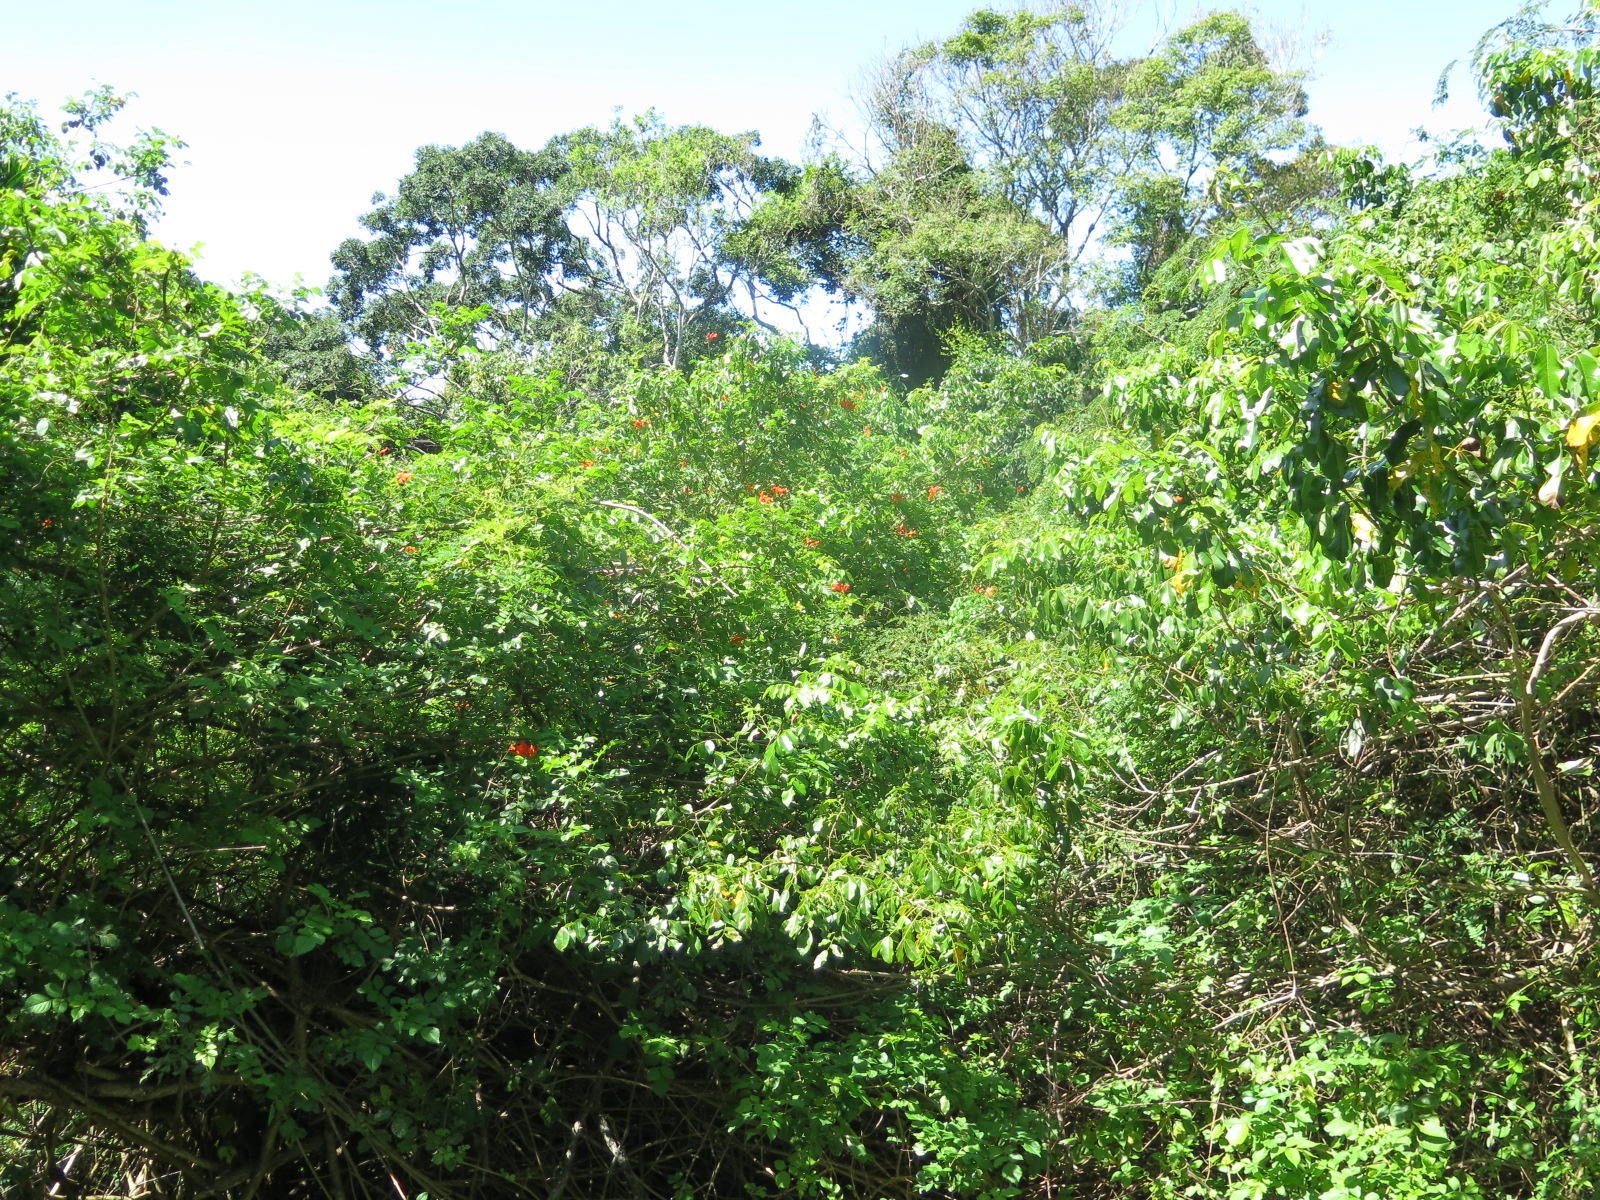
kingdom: Plantae
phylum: Tracheophyta
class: Magnoliopsida
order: Lamiales
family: Bignoniaceae
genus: Tecomaria
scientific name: Tecomaria capensis
